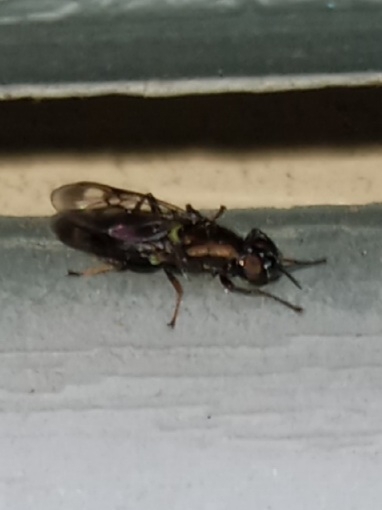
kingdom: Animalia
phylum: Arthropoda
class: Insecta
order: Diptera
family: Stratiomyidae
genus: Myxosargus
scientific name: Myxosargus nigricormis
